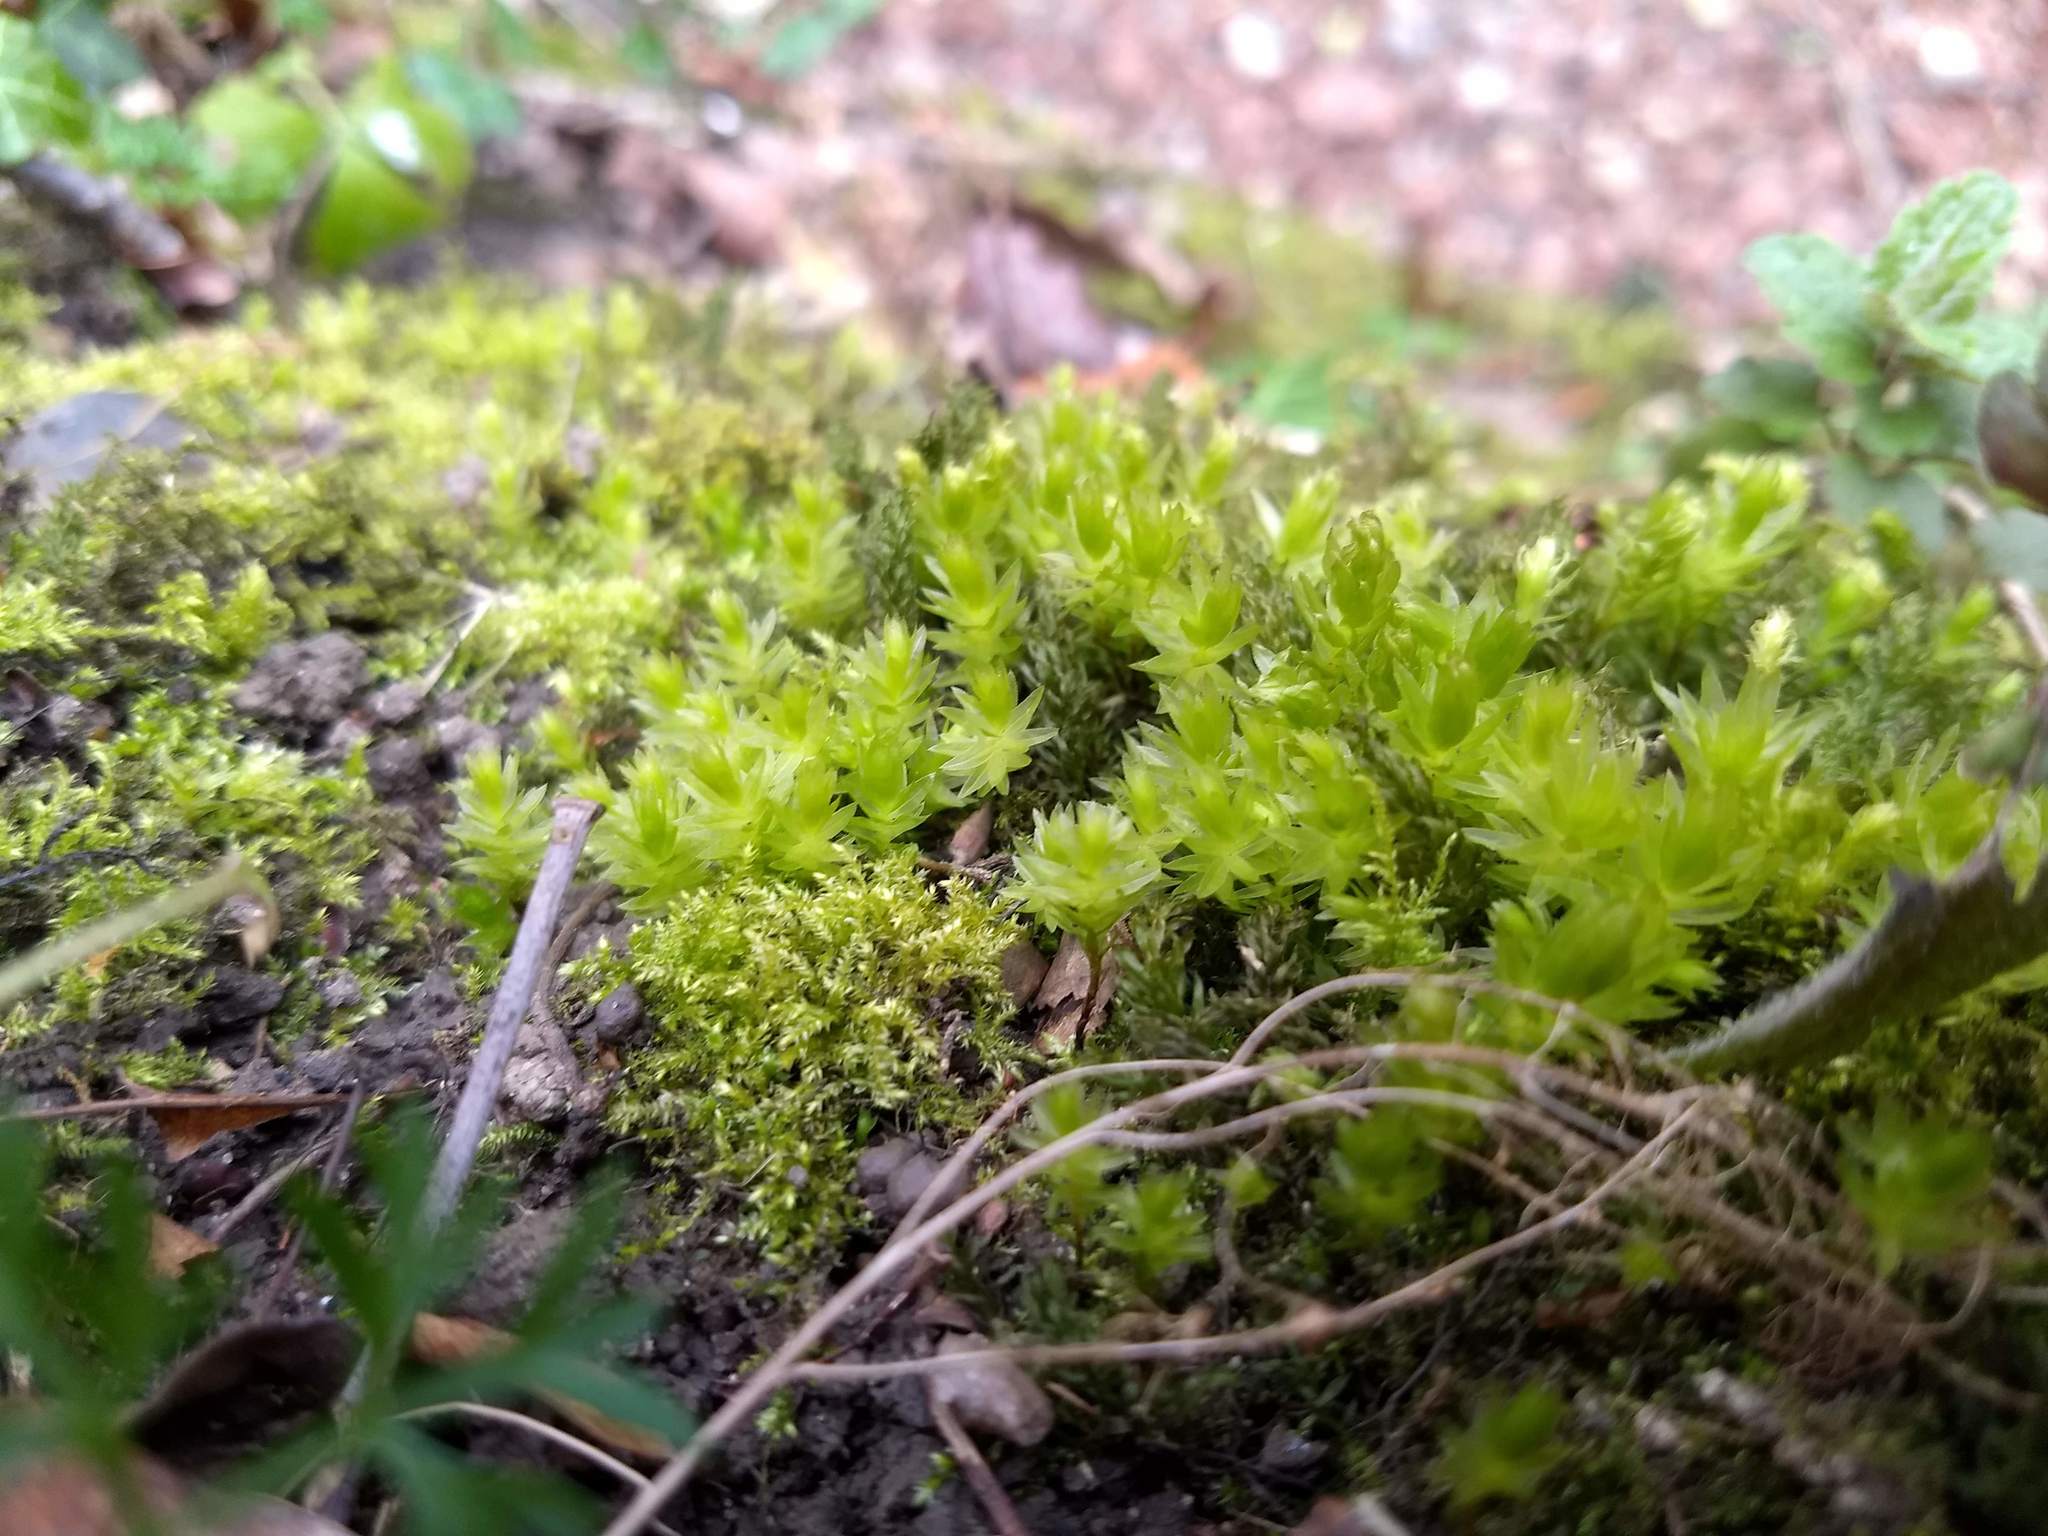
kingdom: Plantae
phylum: Bryophyta
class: Bryopsida
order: Bryales
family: Mniaceae
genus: Mnium
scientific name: Mnium hornum
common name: Swan's-neck leafy moss
